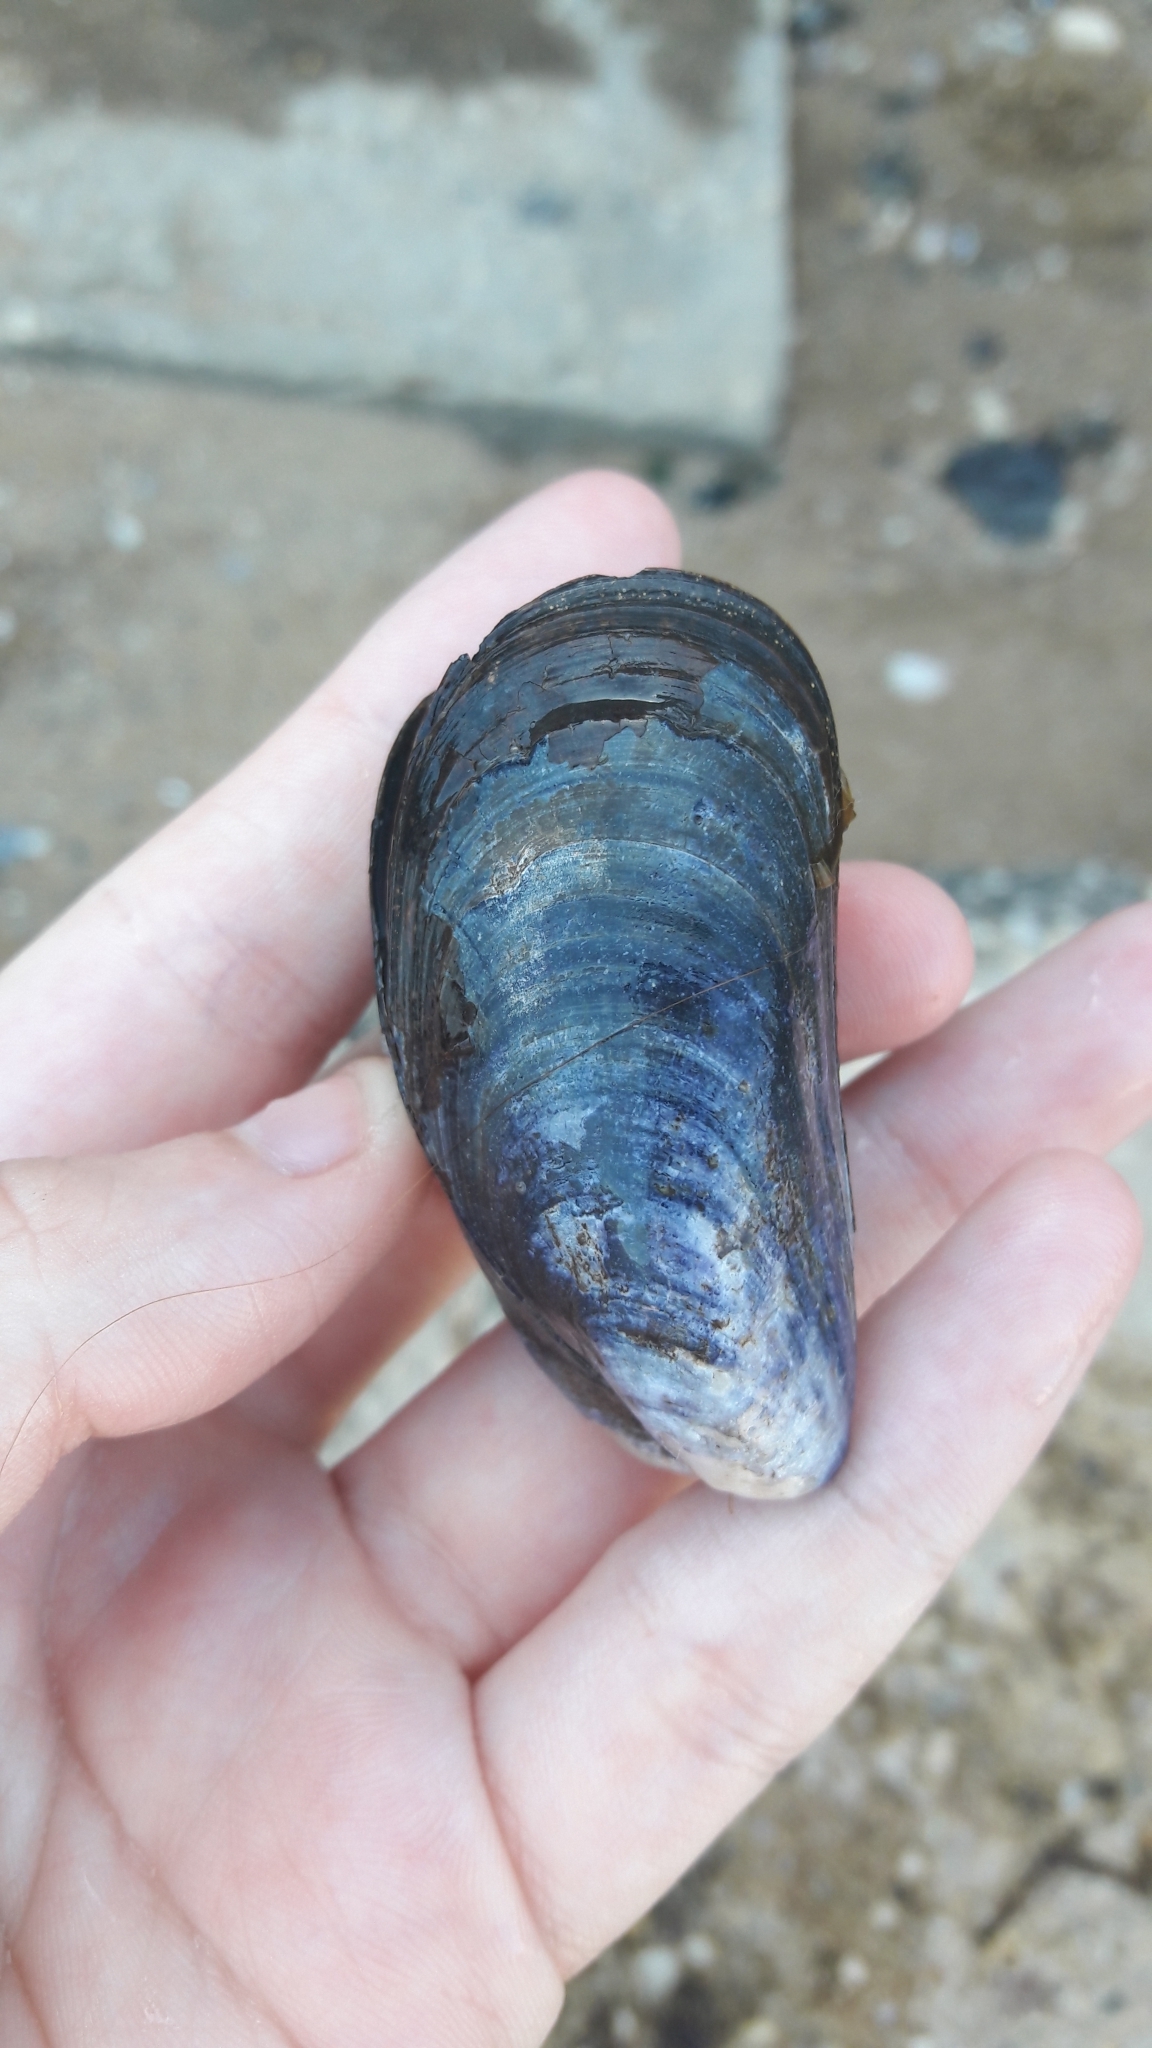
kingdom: Animalia
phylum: Mollusca
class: Bivalvia
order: Mytilida
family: Mytilidae
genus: Mytilus
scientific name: Mytilus edulis
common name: Blue mussel
